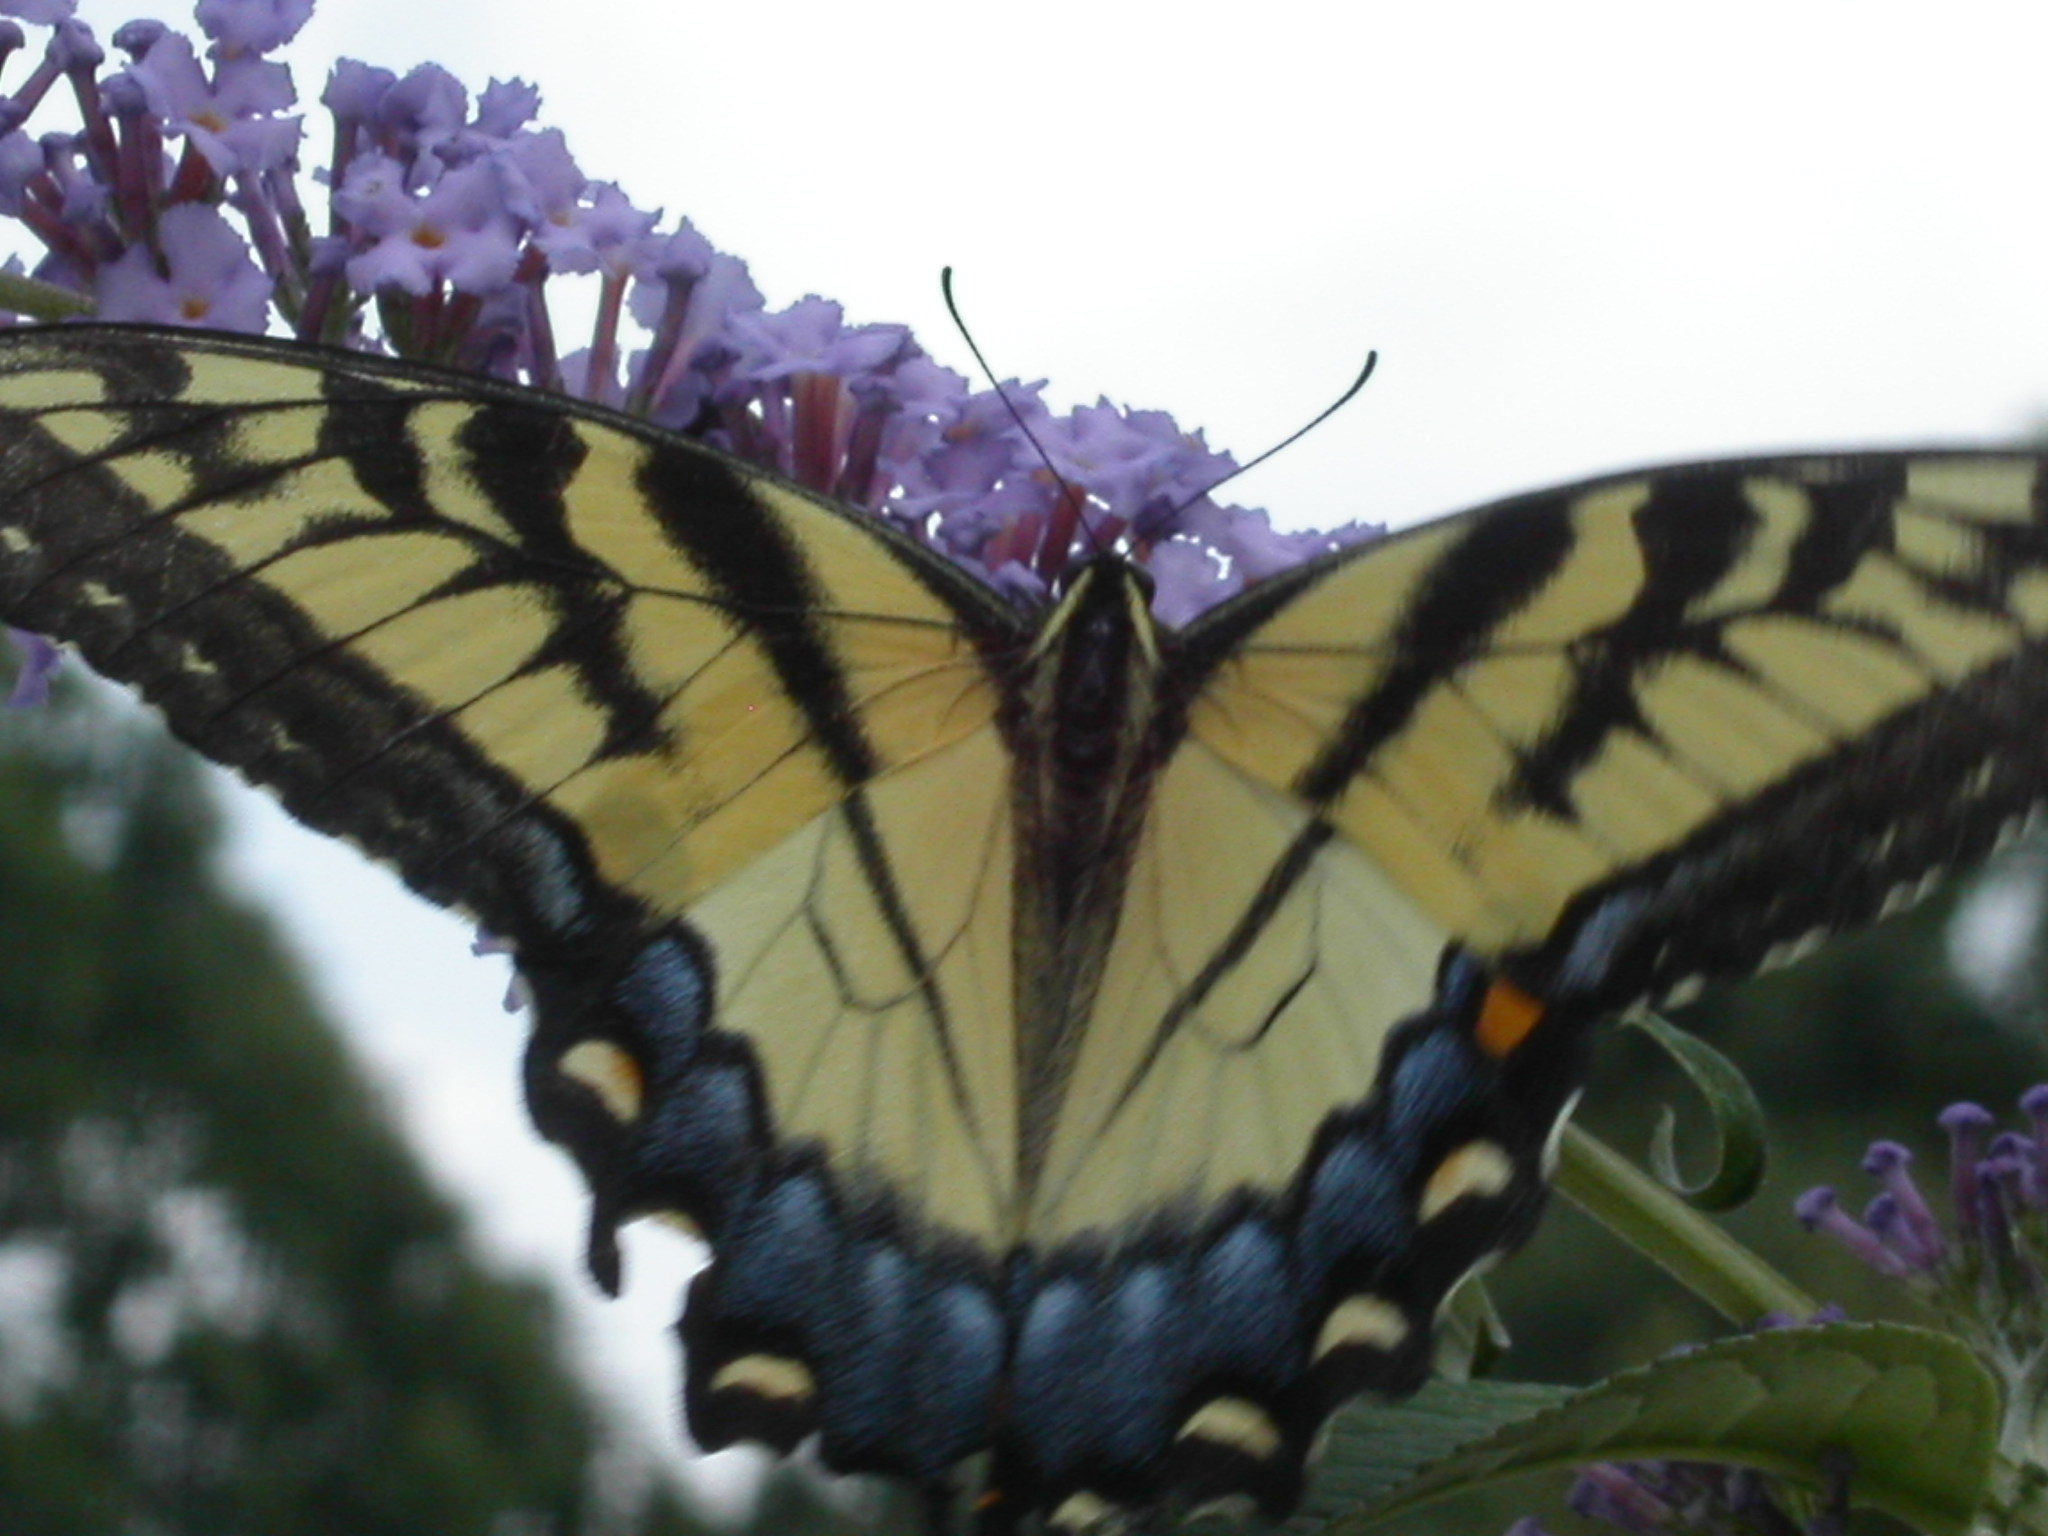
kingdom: Animalia
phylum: Arthropoda
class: Insecta
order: Lepidoptera
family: Papilionidae
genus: Papilio
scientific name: Papilio glaucus
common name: Tiger swallowtail
